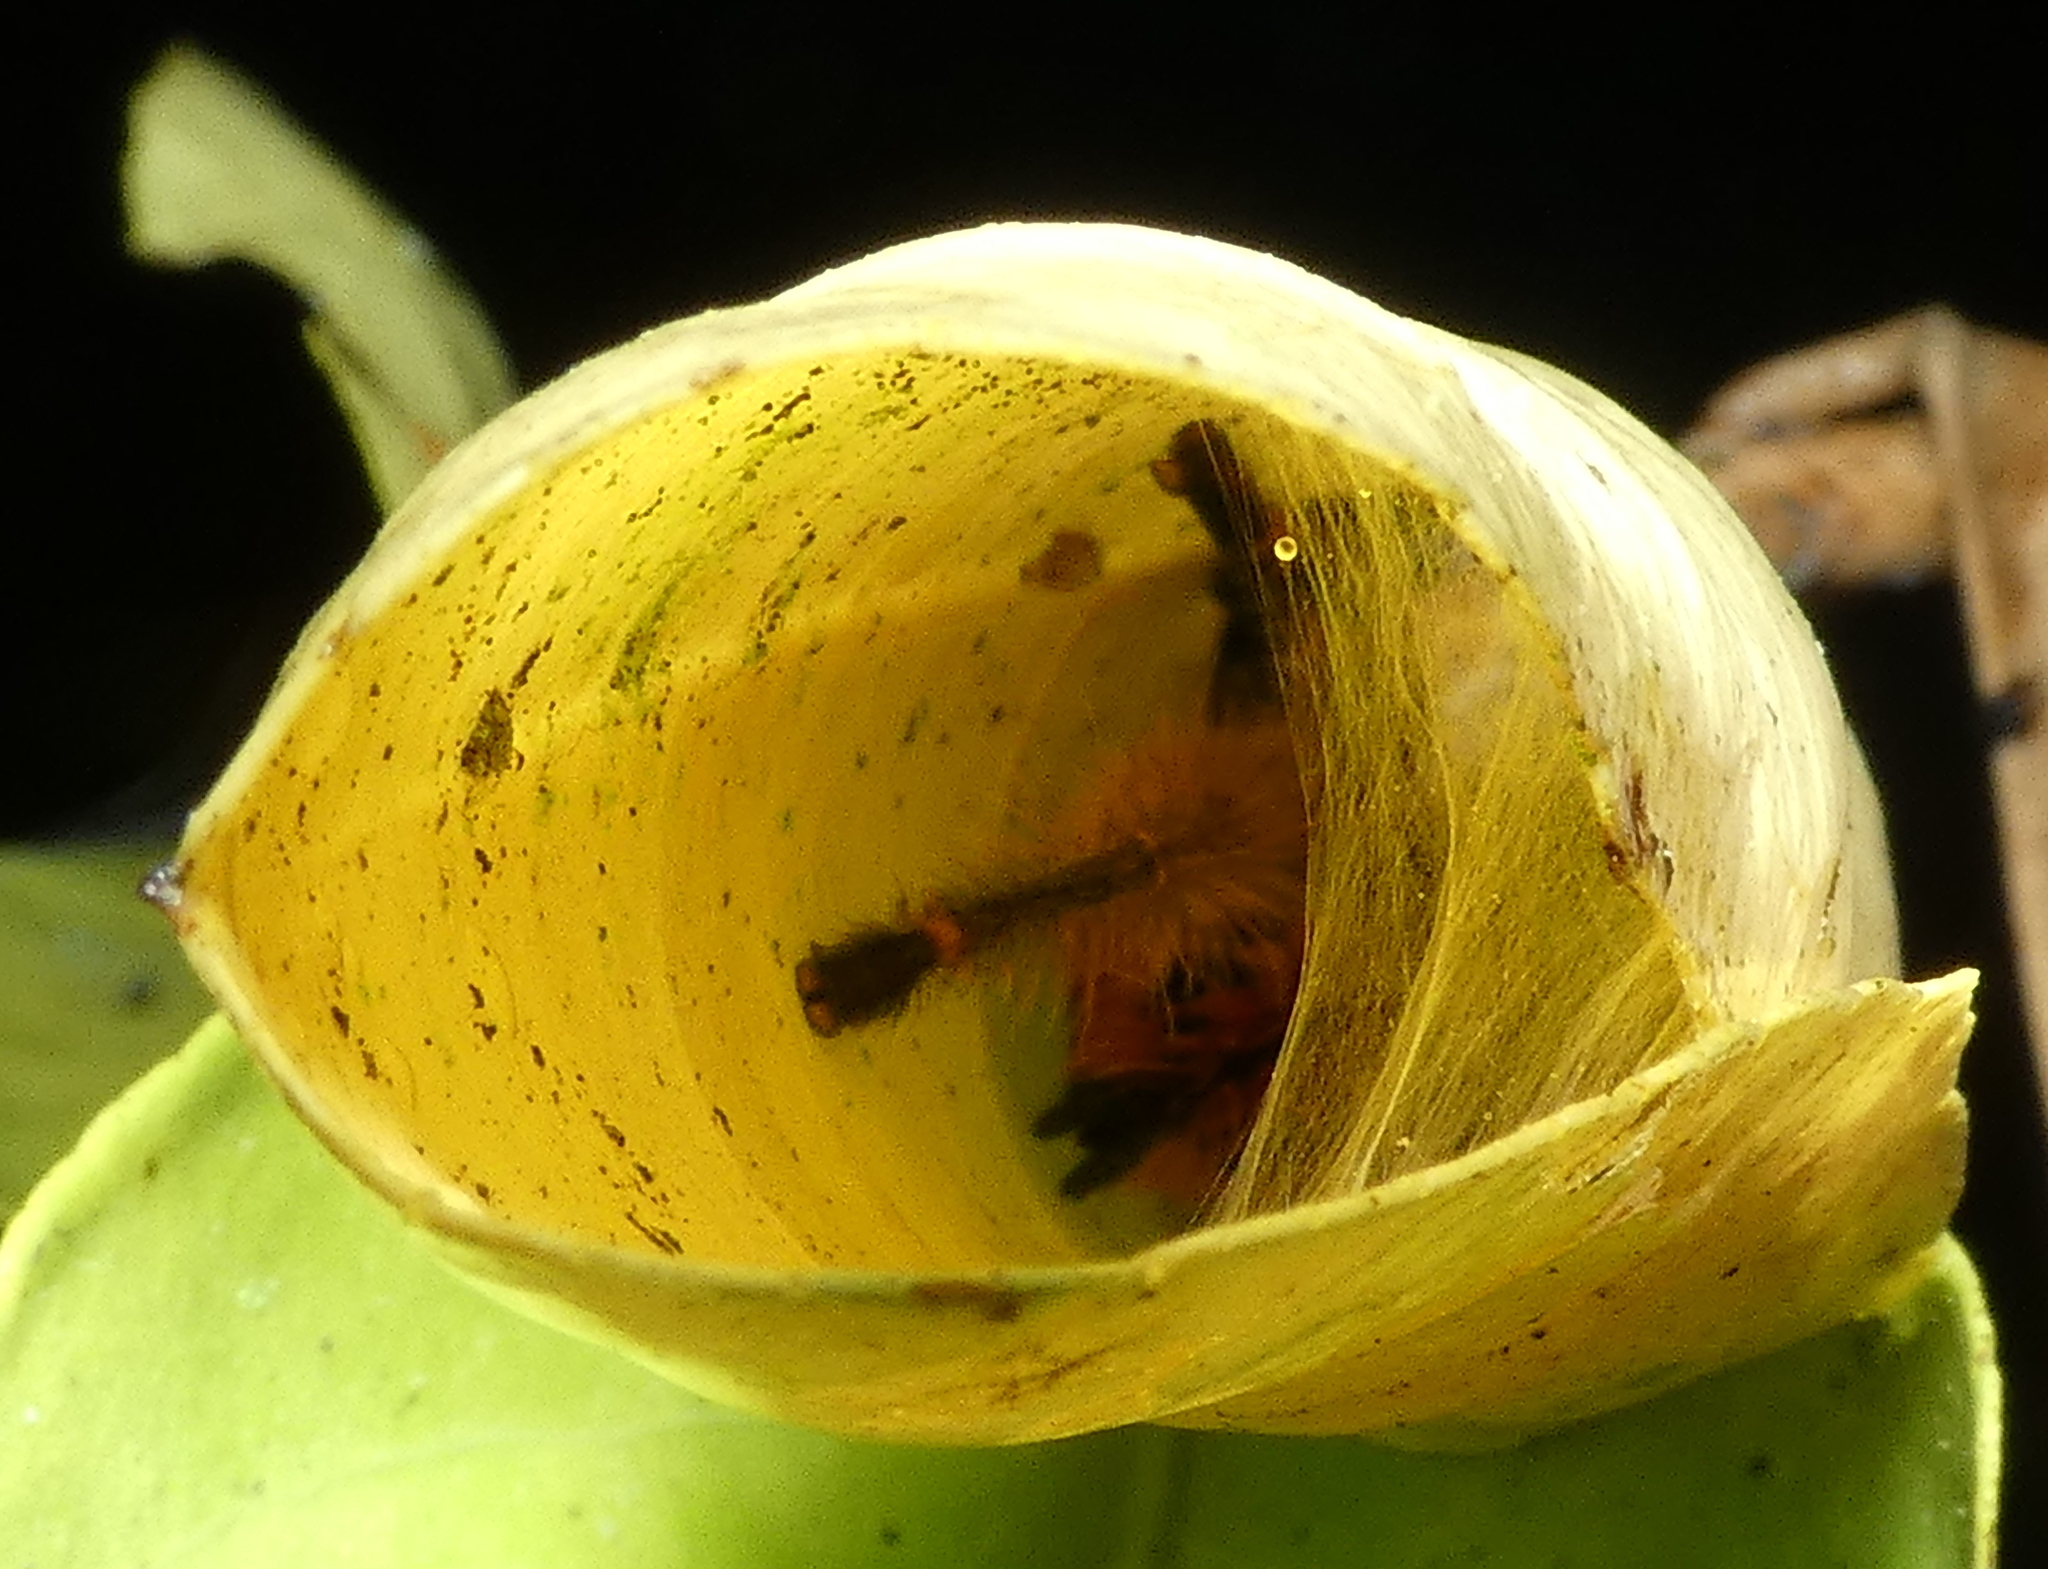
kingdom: Animalia
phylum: Arthropoda
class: Arachnida
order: Araneae
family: Theraphosidae
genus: Iridopelma
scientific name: Iridopelma hirsutum
